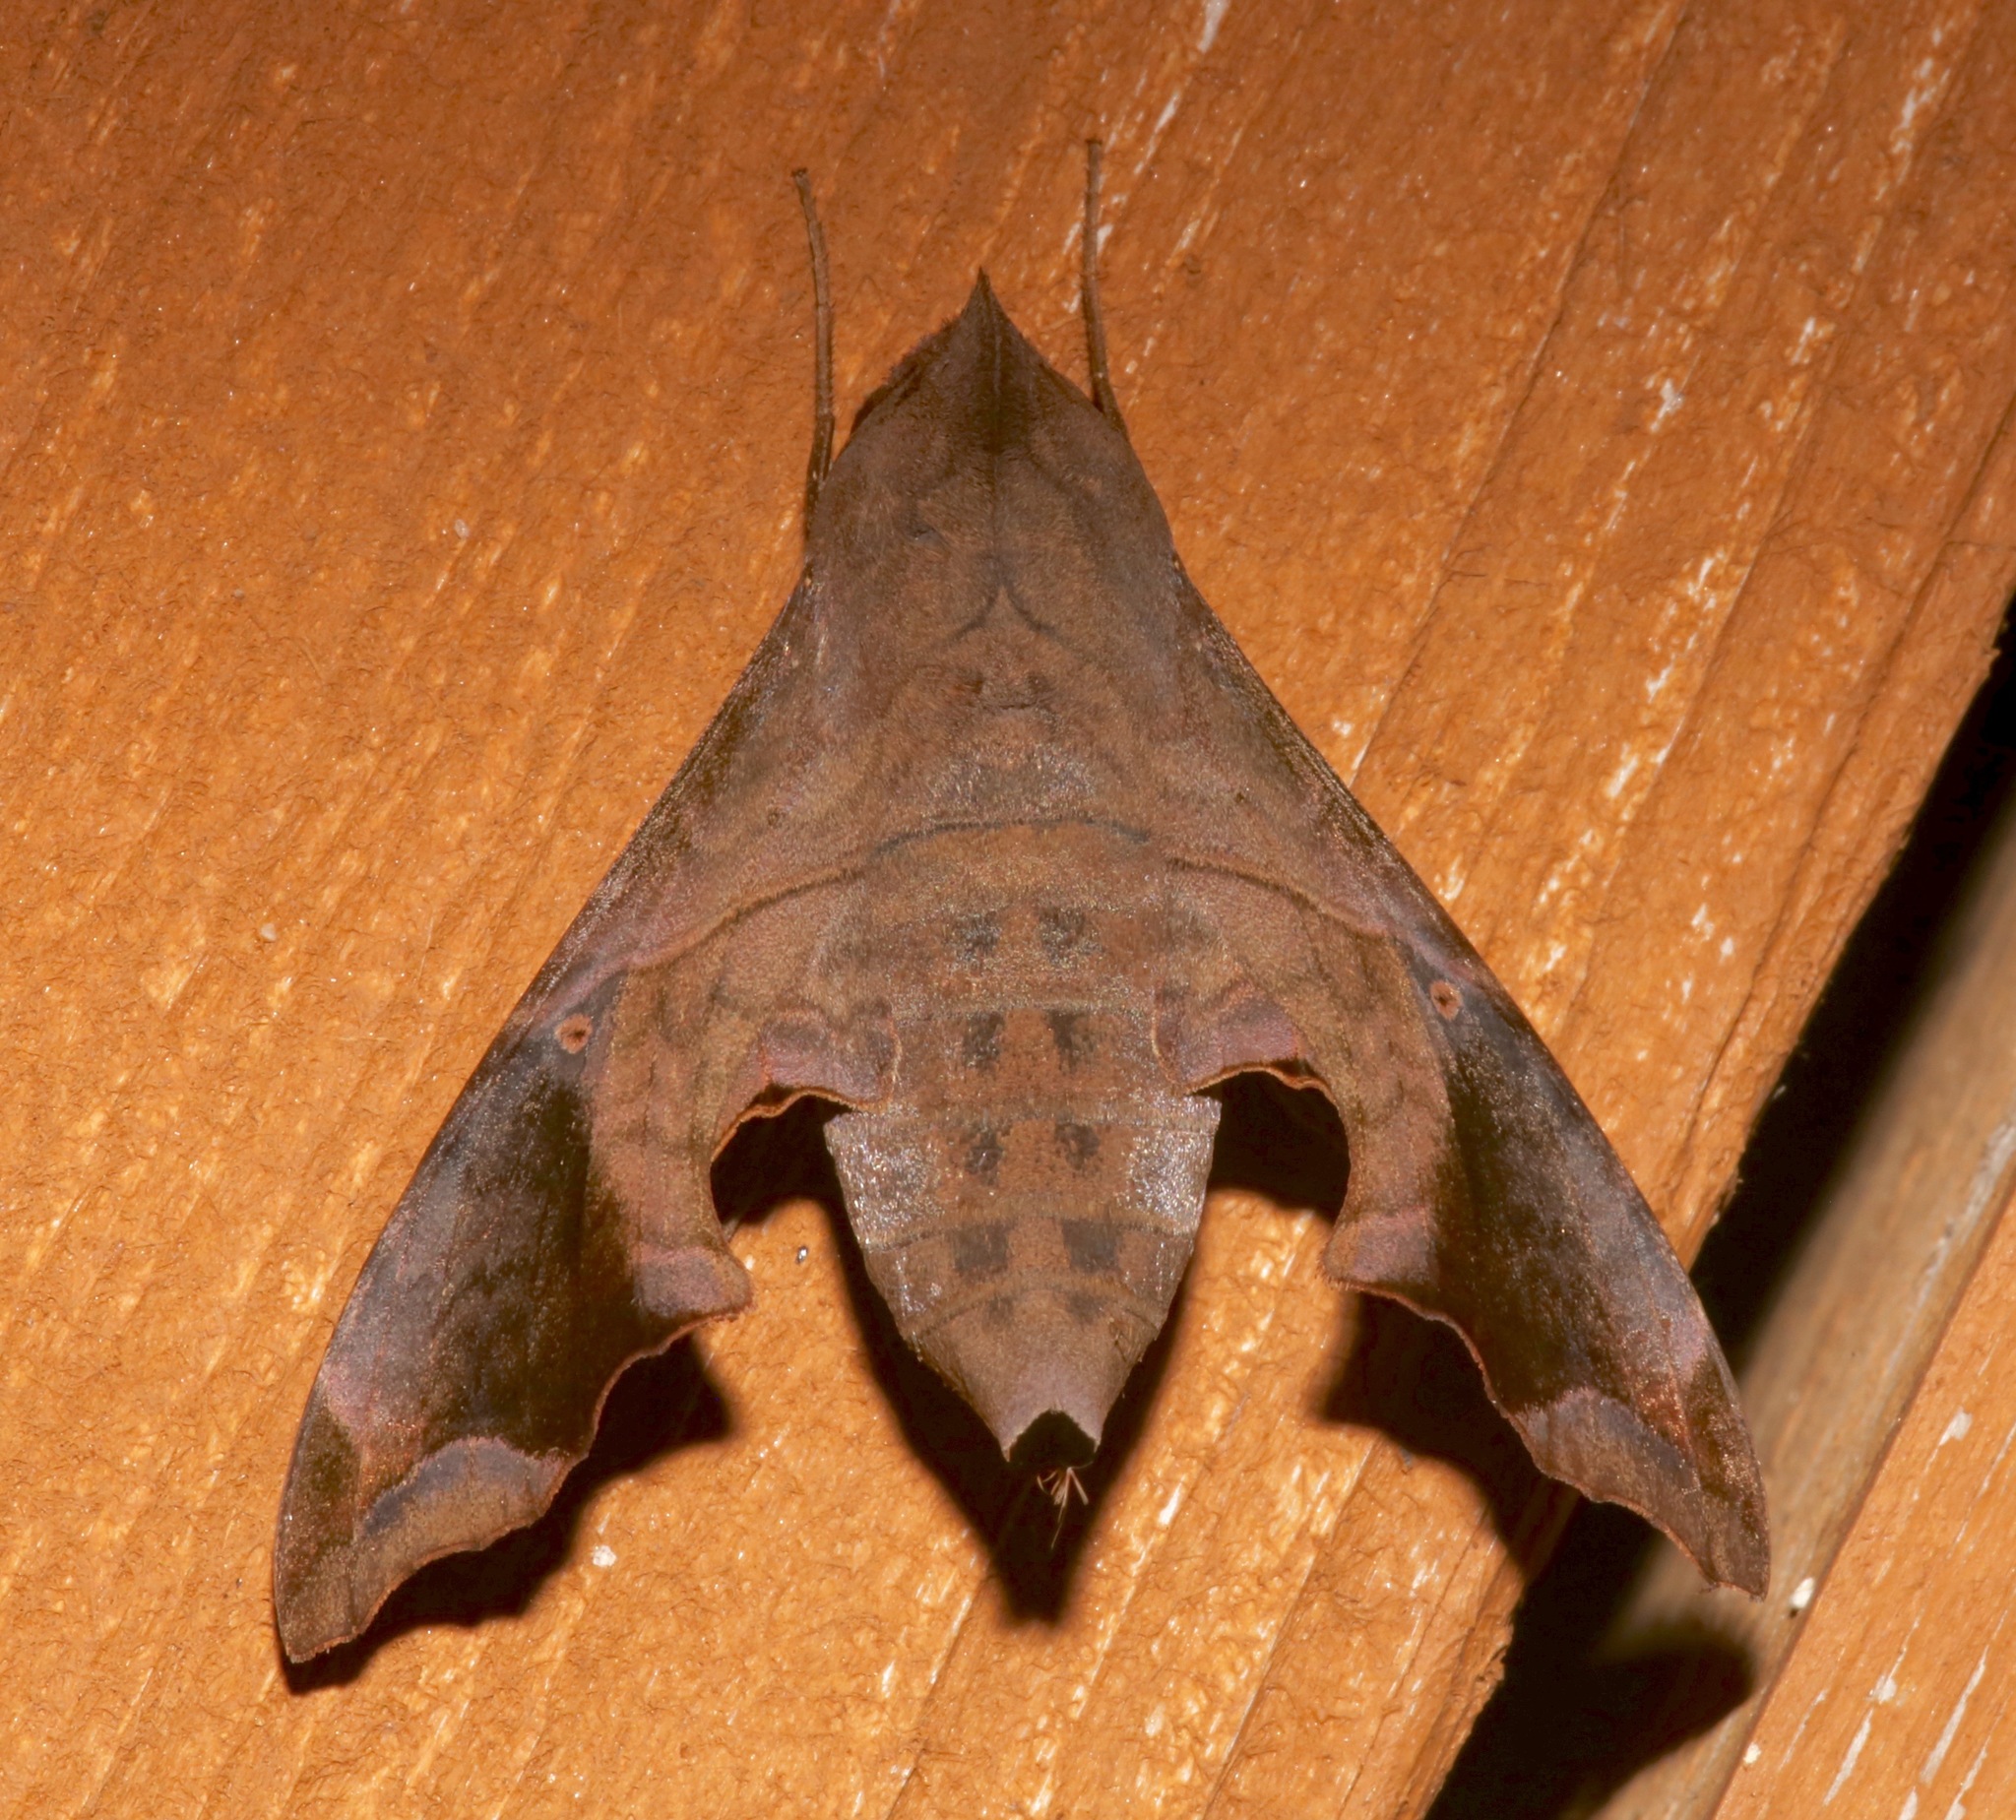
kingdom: Animalia
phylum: Arthropoda
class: Insecta
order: Lepidoptera
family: Sphingidae
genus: Enyo
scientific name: Enyo lugubris
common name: Mournful sphinx
